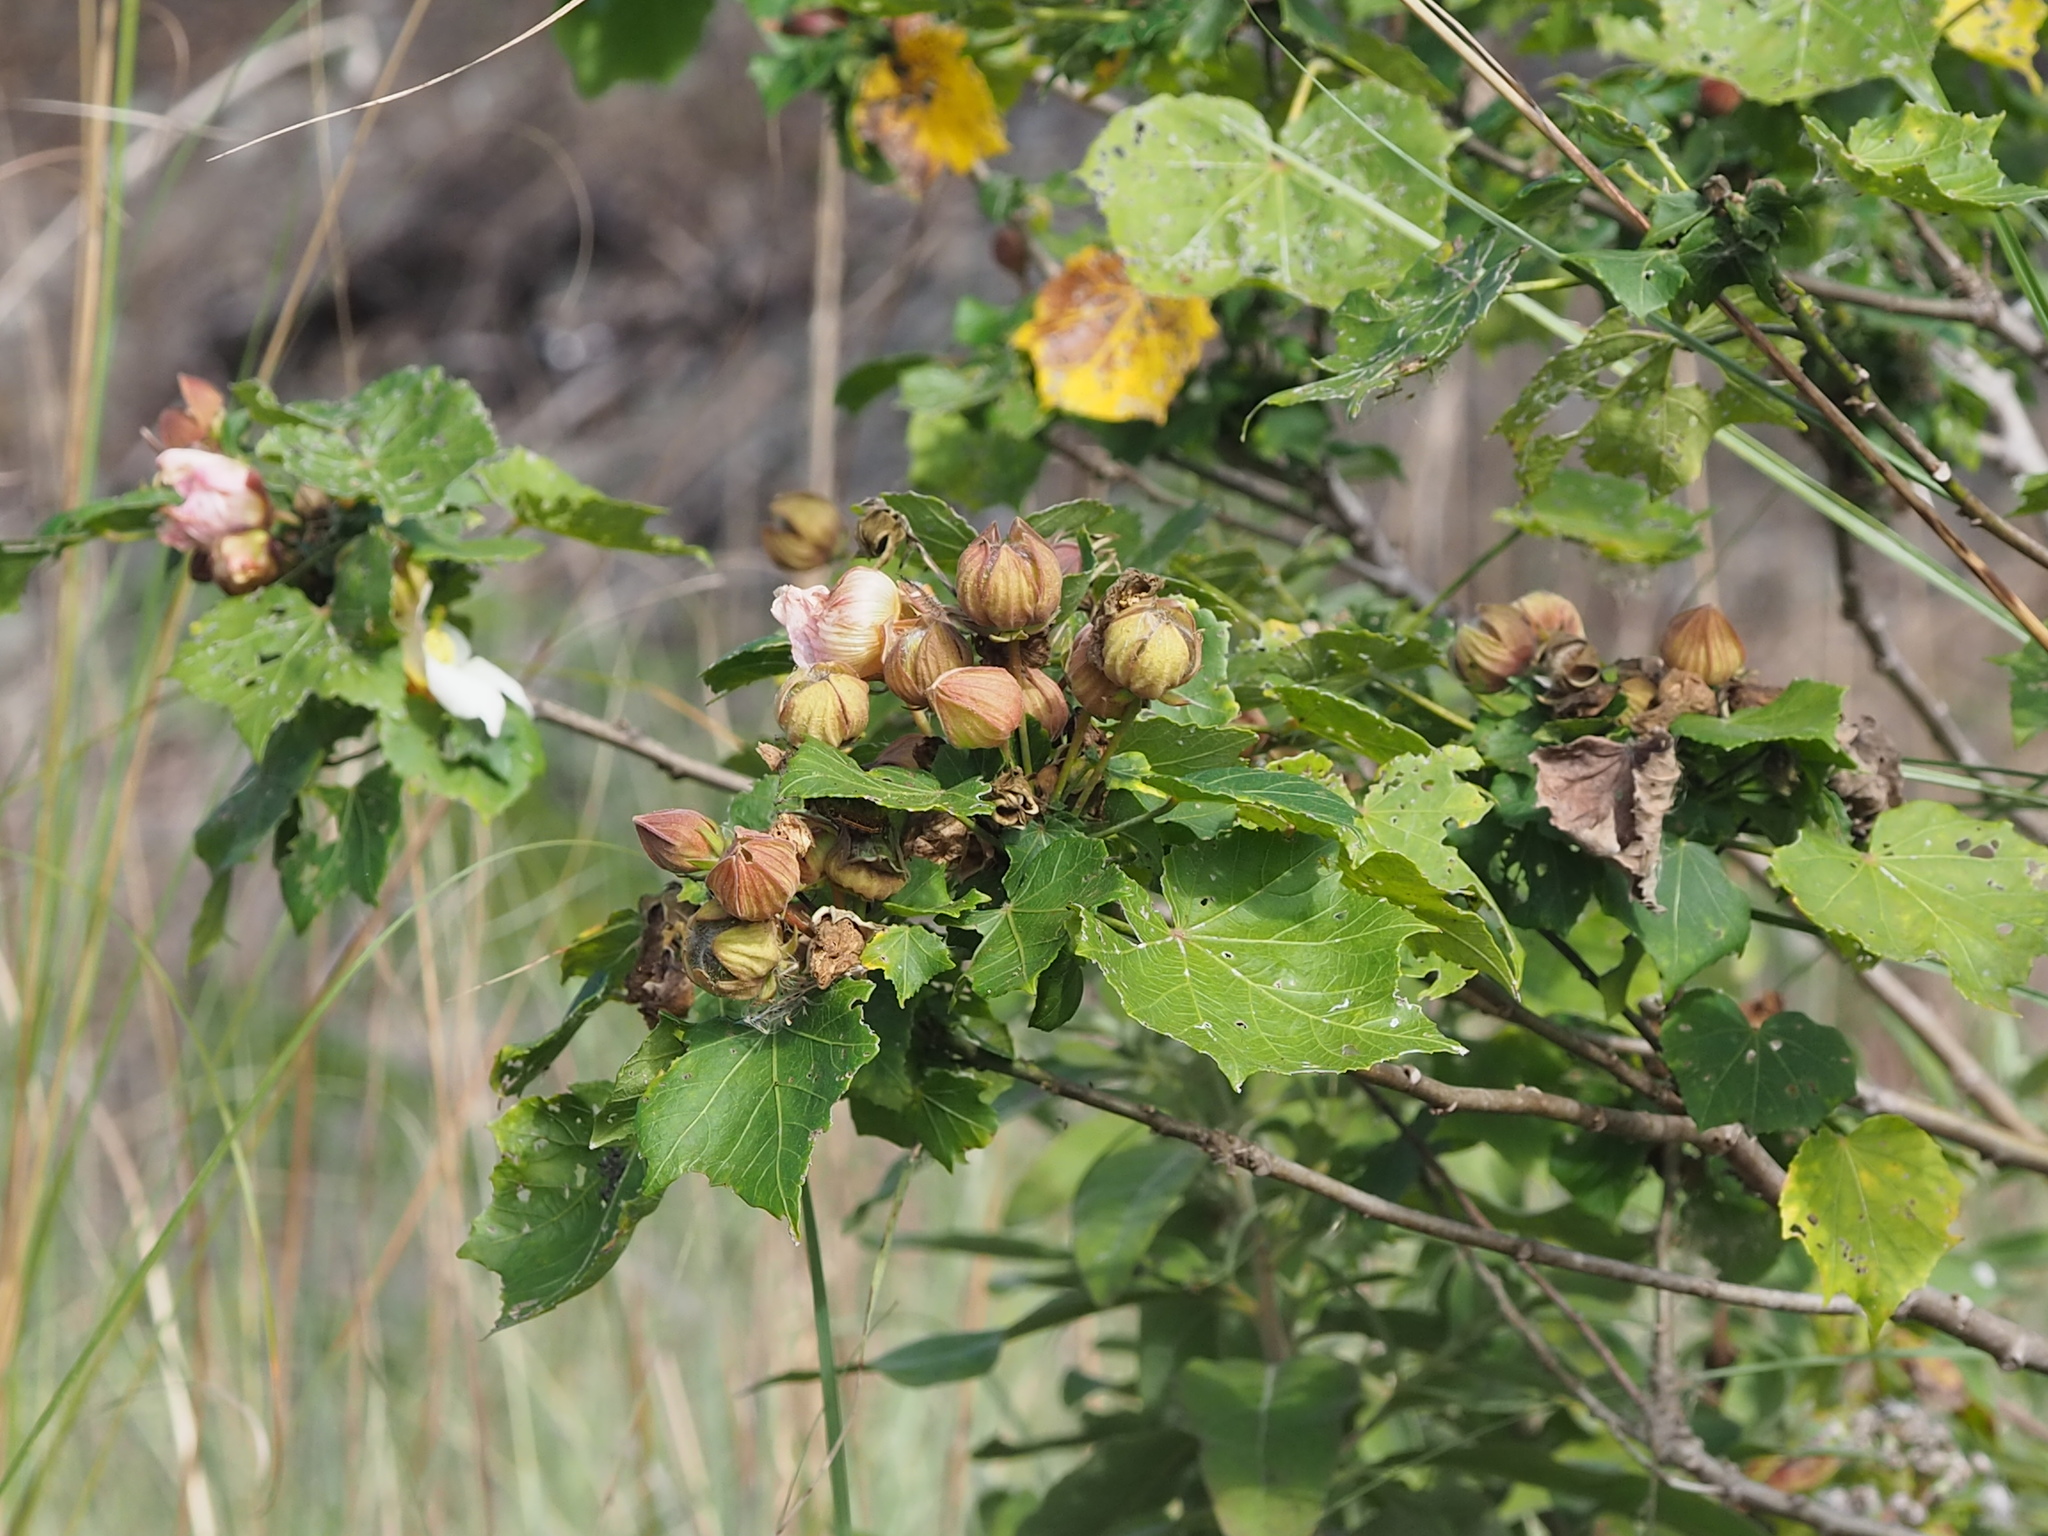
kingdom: Plantae
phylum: Tracheophyta
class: Magnoliopsida
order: Malvales
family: Malvaceae
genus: Hibiscus
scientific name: Hibiscus taiwanensis
